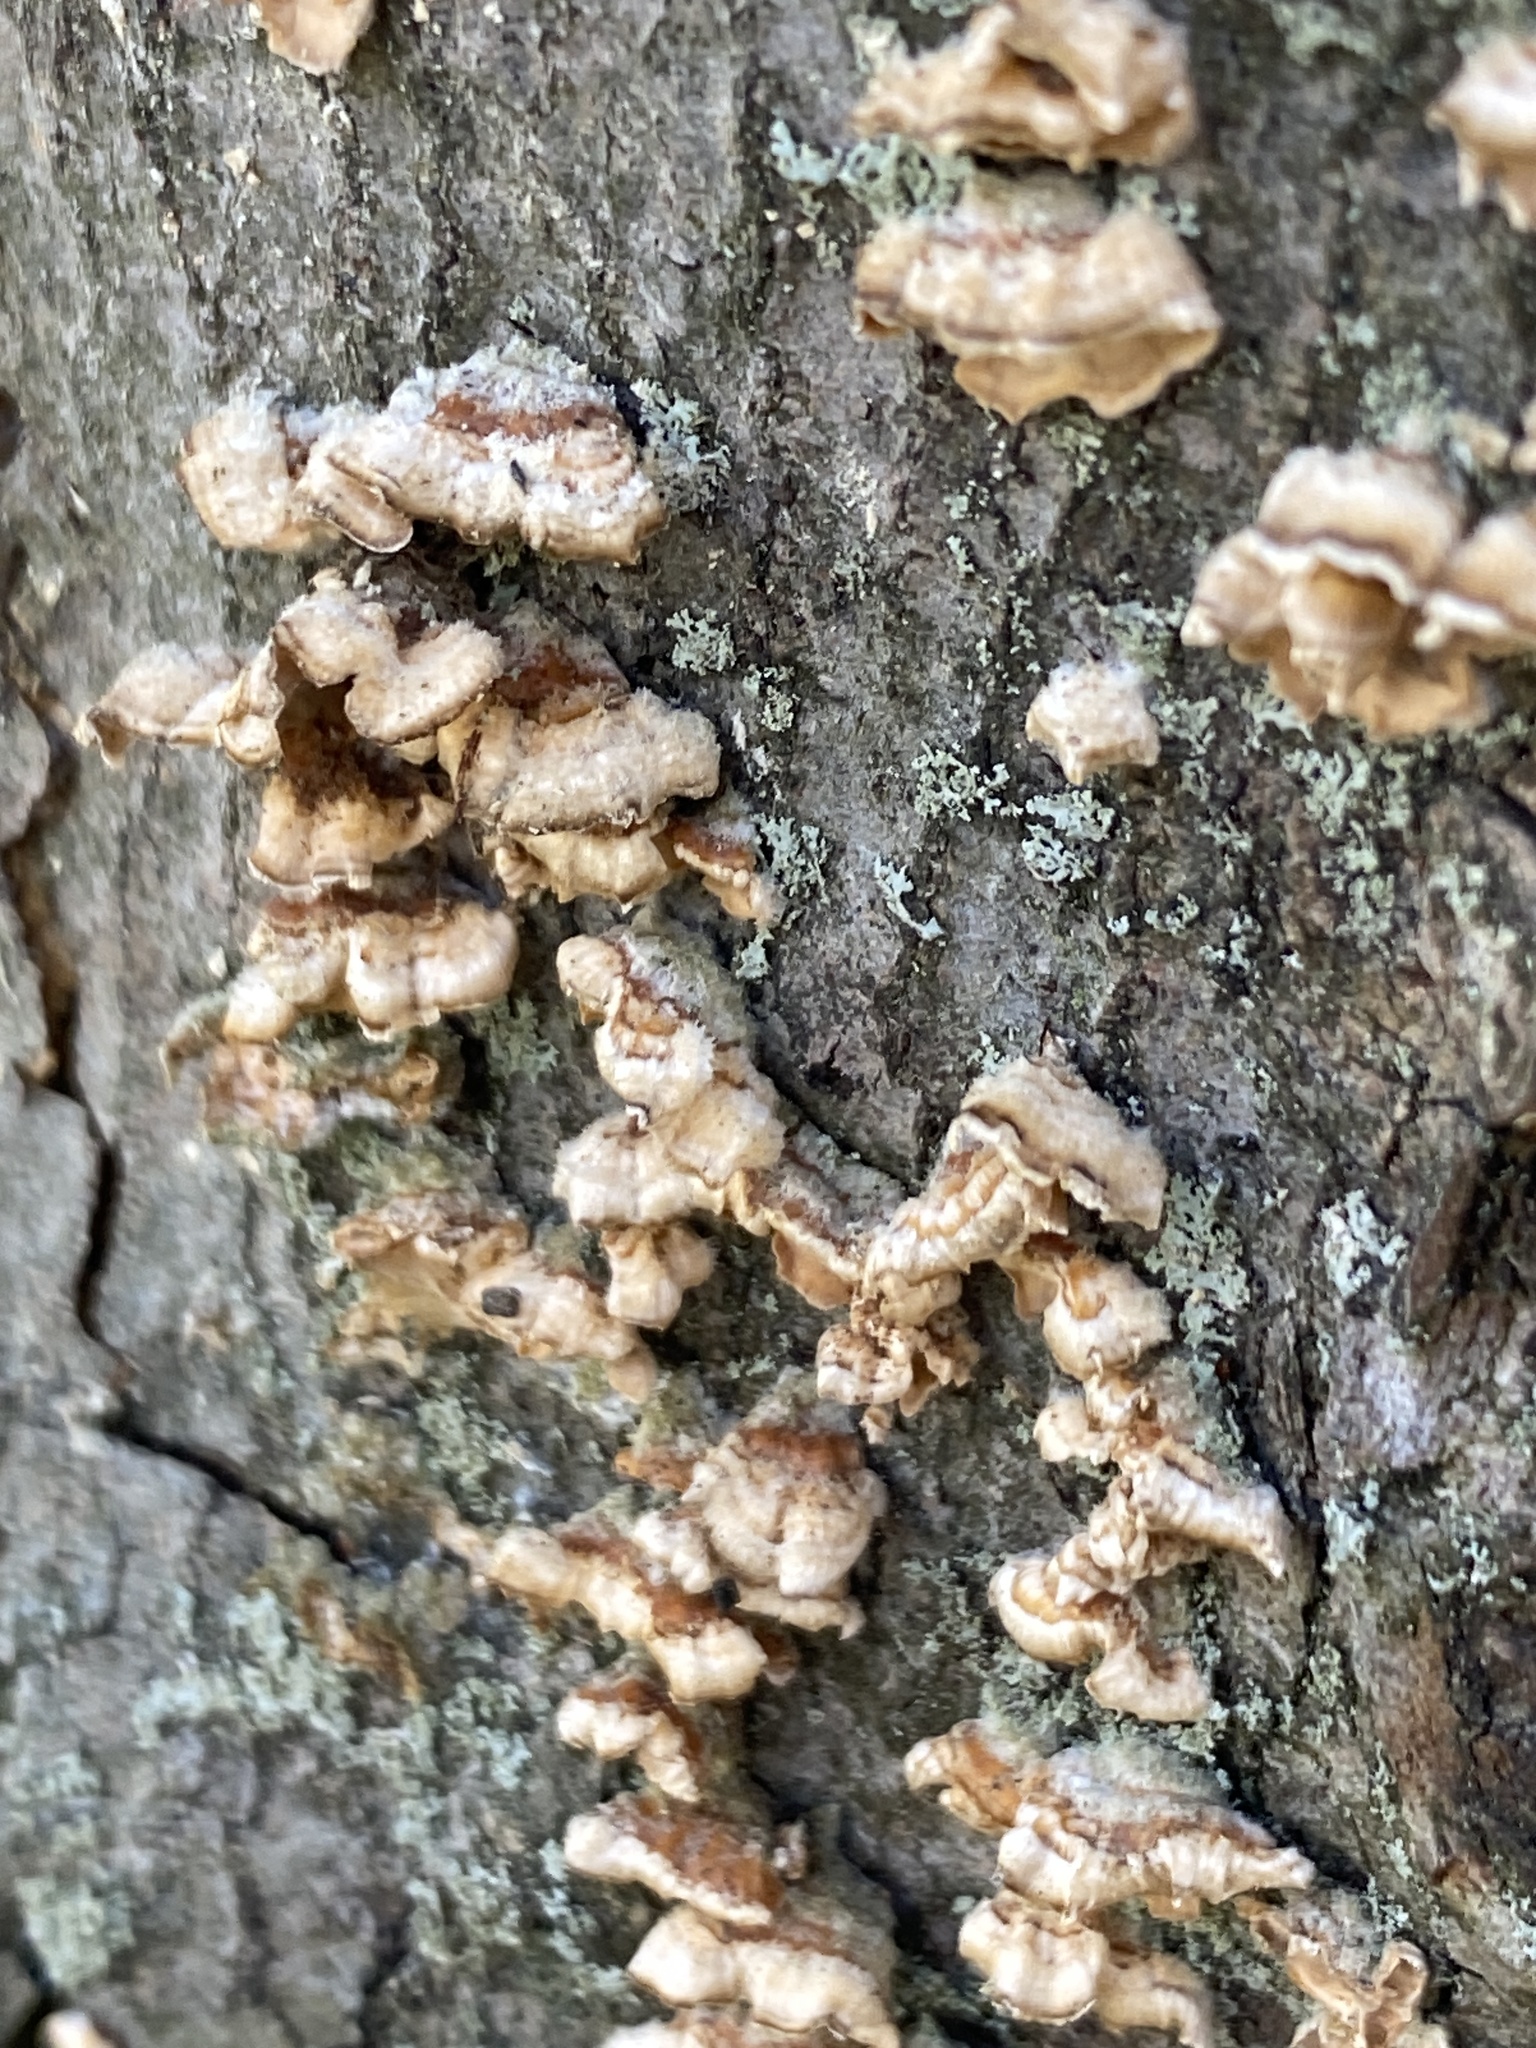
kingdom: Fungi
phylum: Basidiomycota
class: Agaricomycetes
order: Russulales
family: Stereaceae
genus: Stereum
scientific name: Stereum complicatum
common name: Crowded parchment
